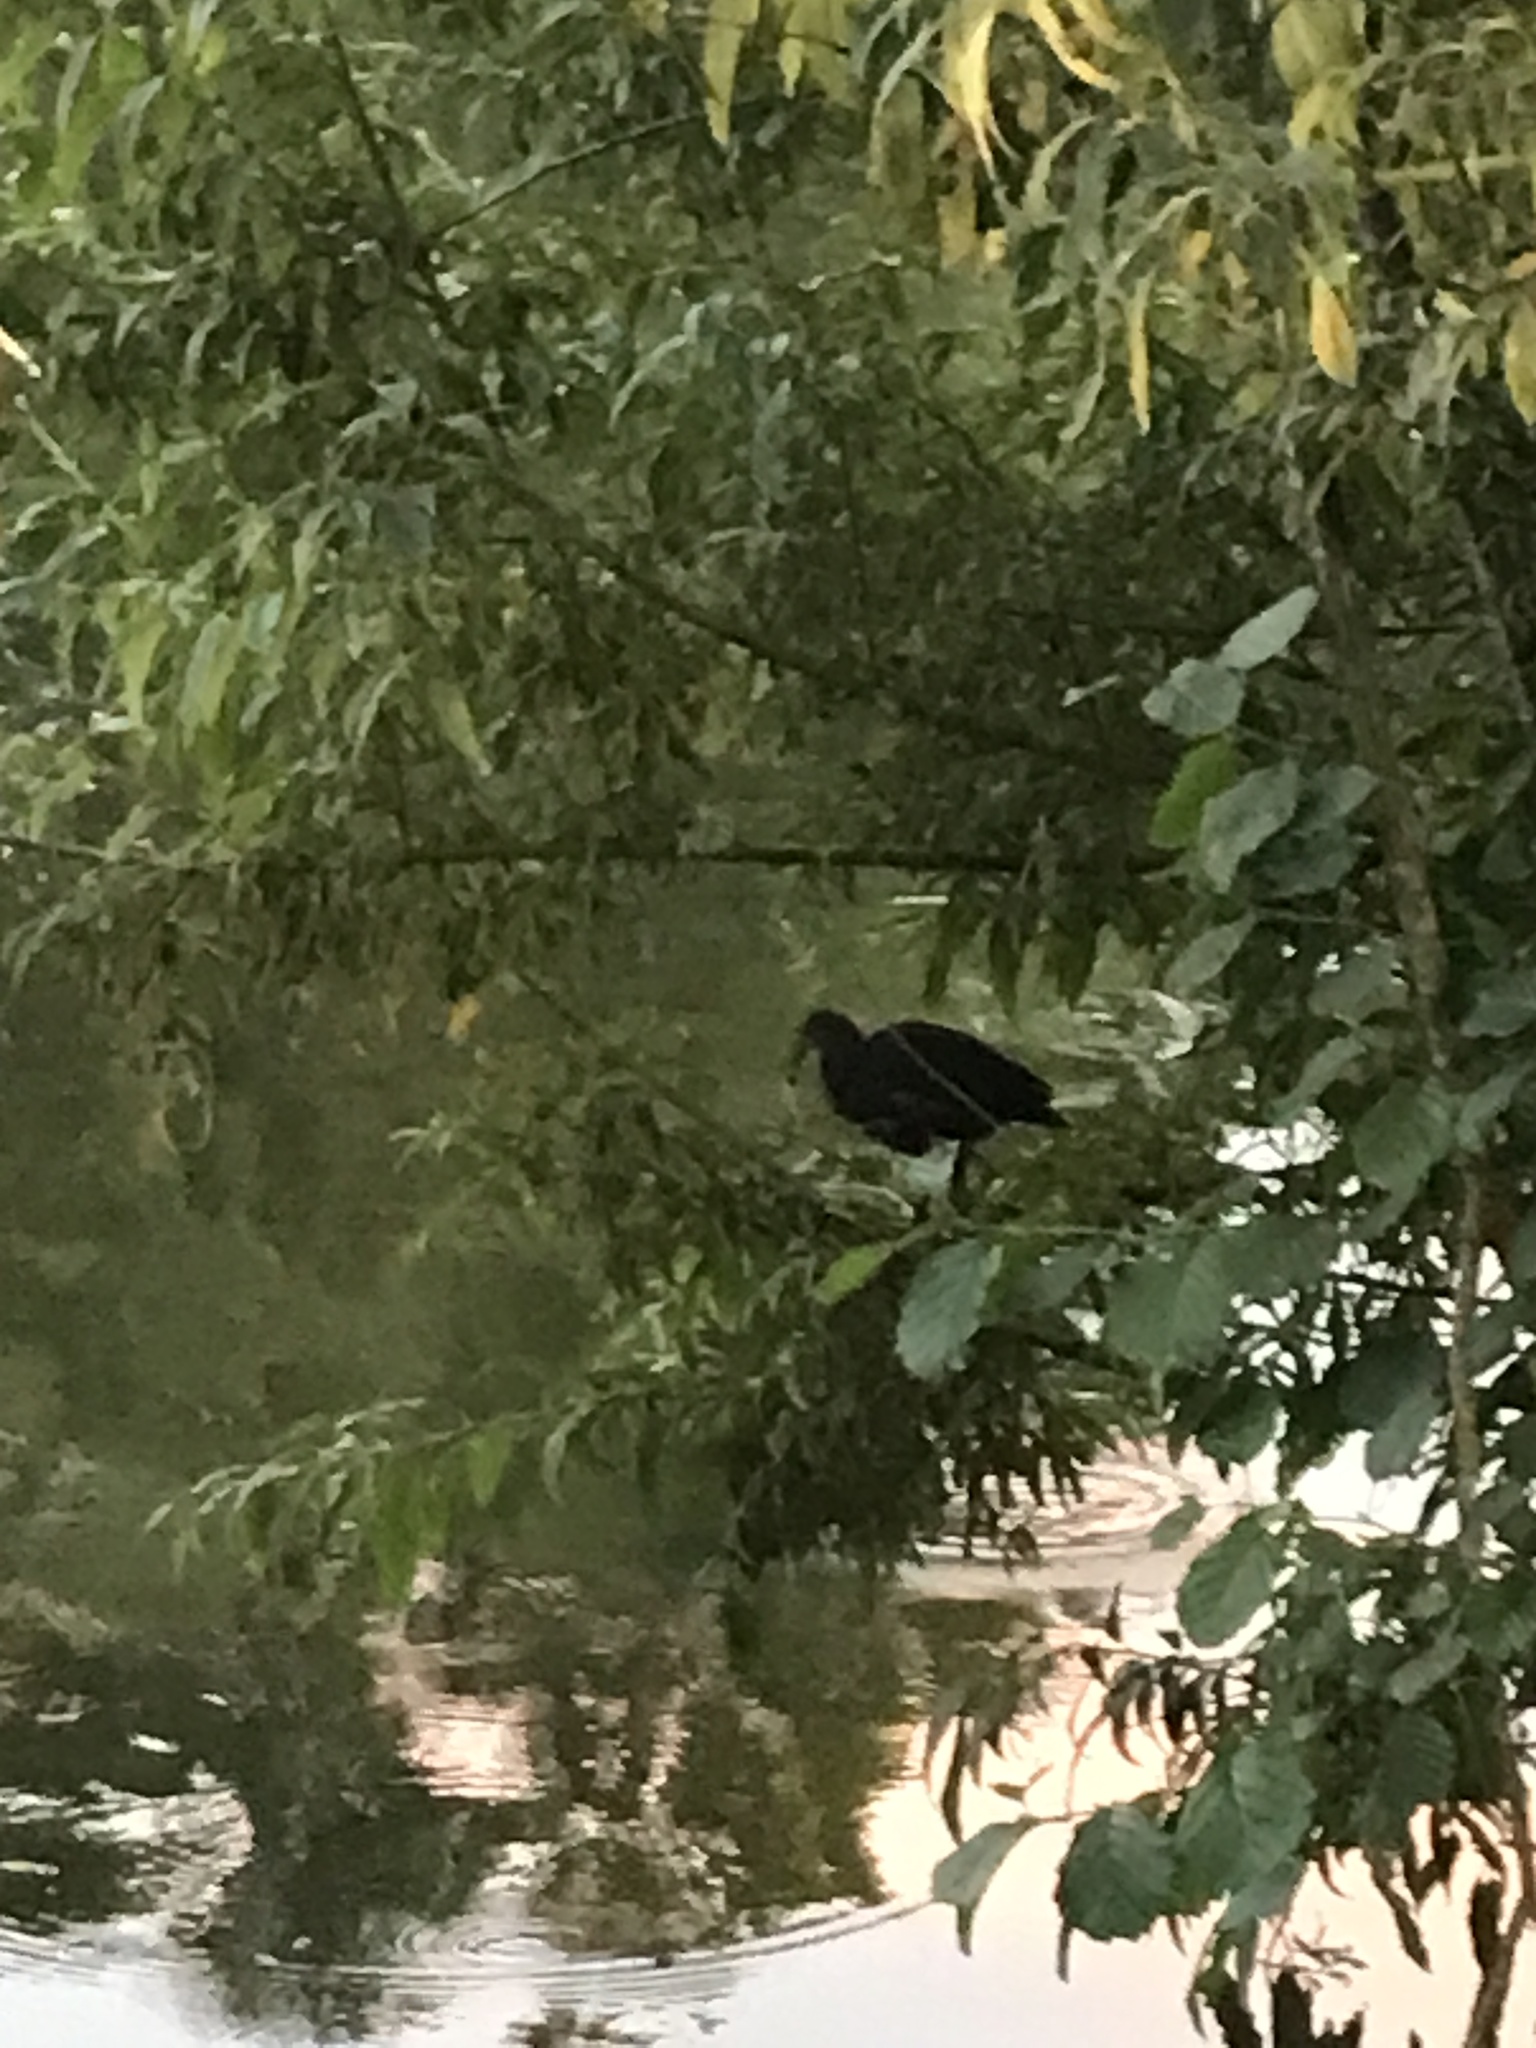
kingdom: Animalia
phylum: Chordata
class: Aves
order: Gruiformes
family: Rallidae
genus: Gallinula
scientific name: Gallinula chloropus
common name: Common moorhen
